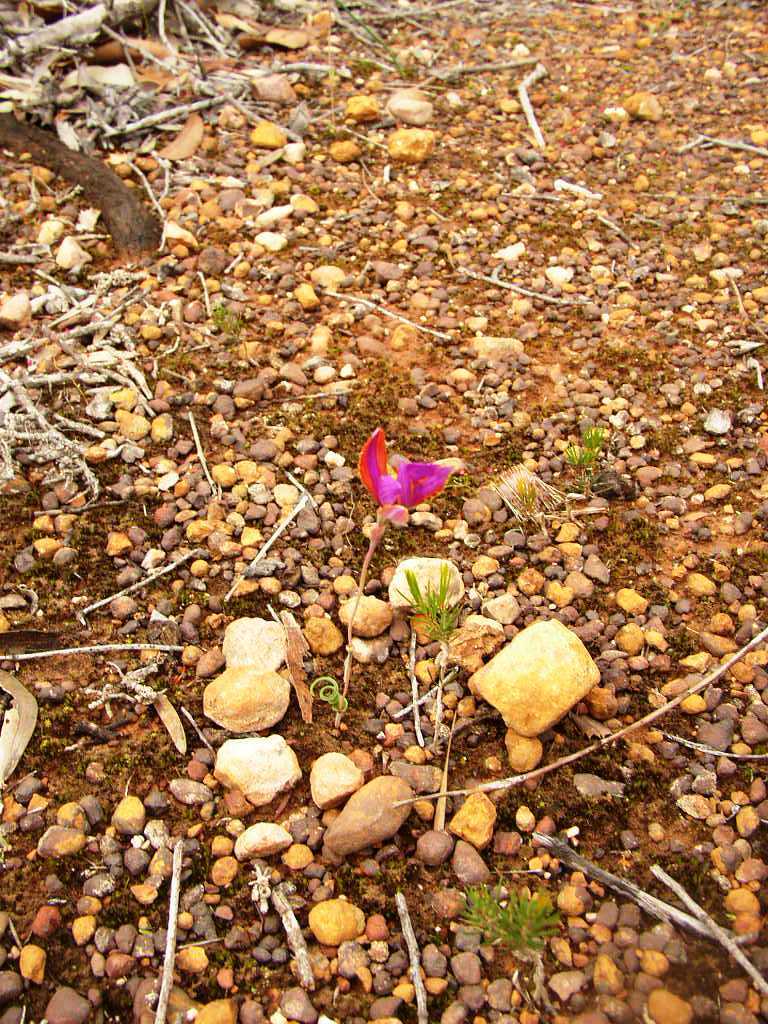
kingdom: Plantae
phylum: Tracheophyta
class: Liliopsida
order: Asparagales
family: Orchidaceae
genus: Thelymitra
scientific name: Thelymitra speciosa
